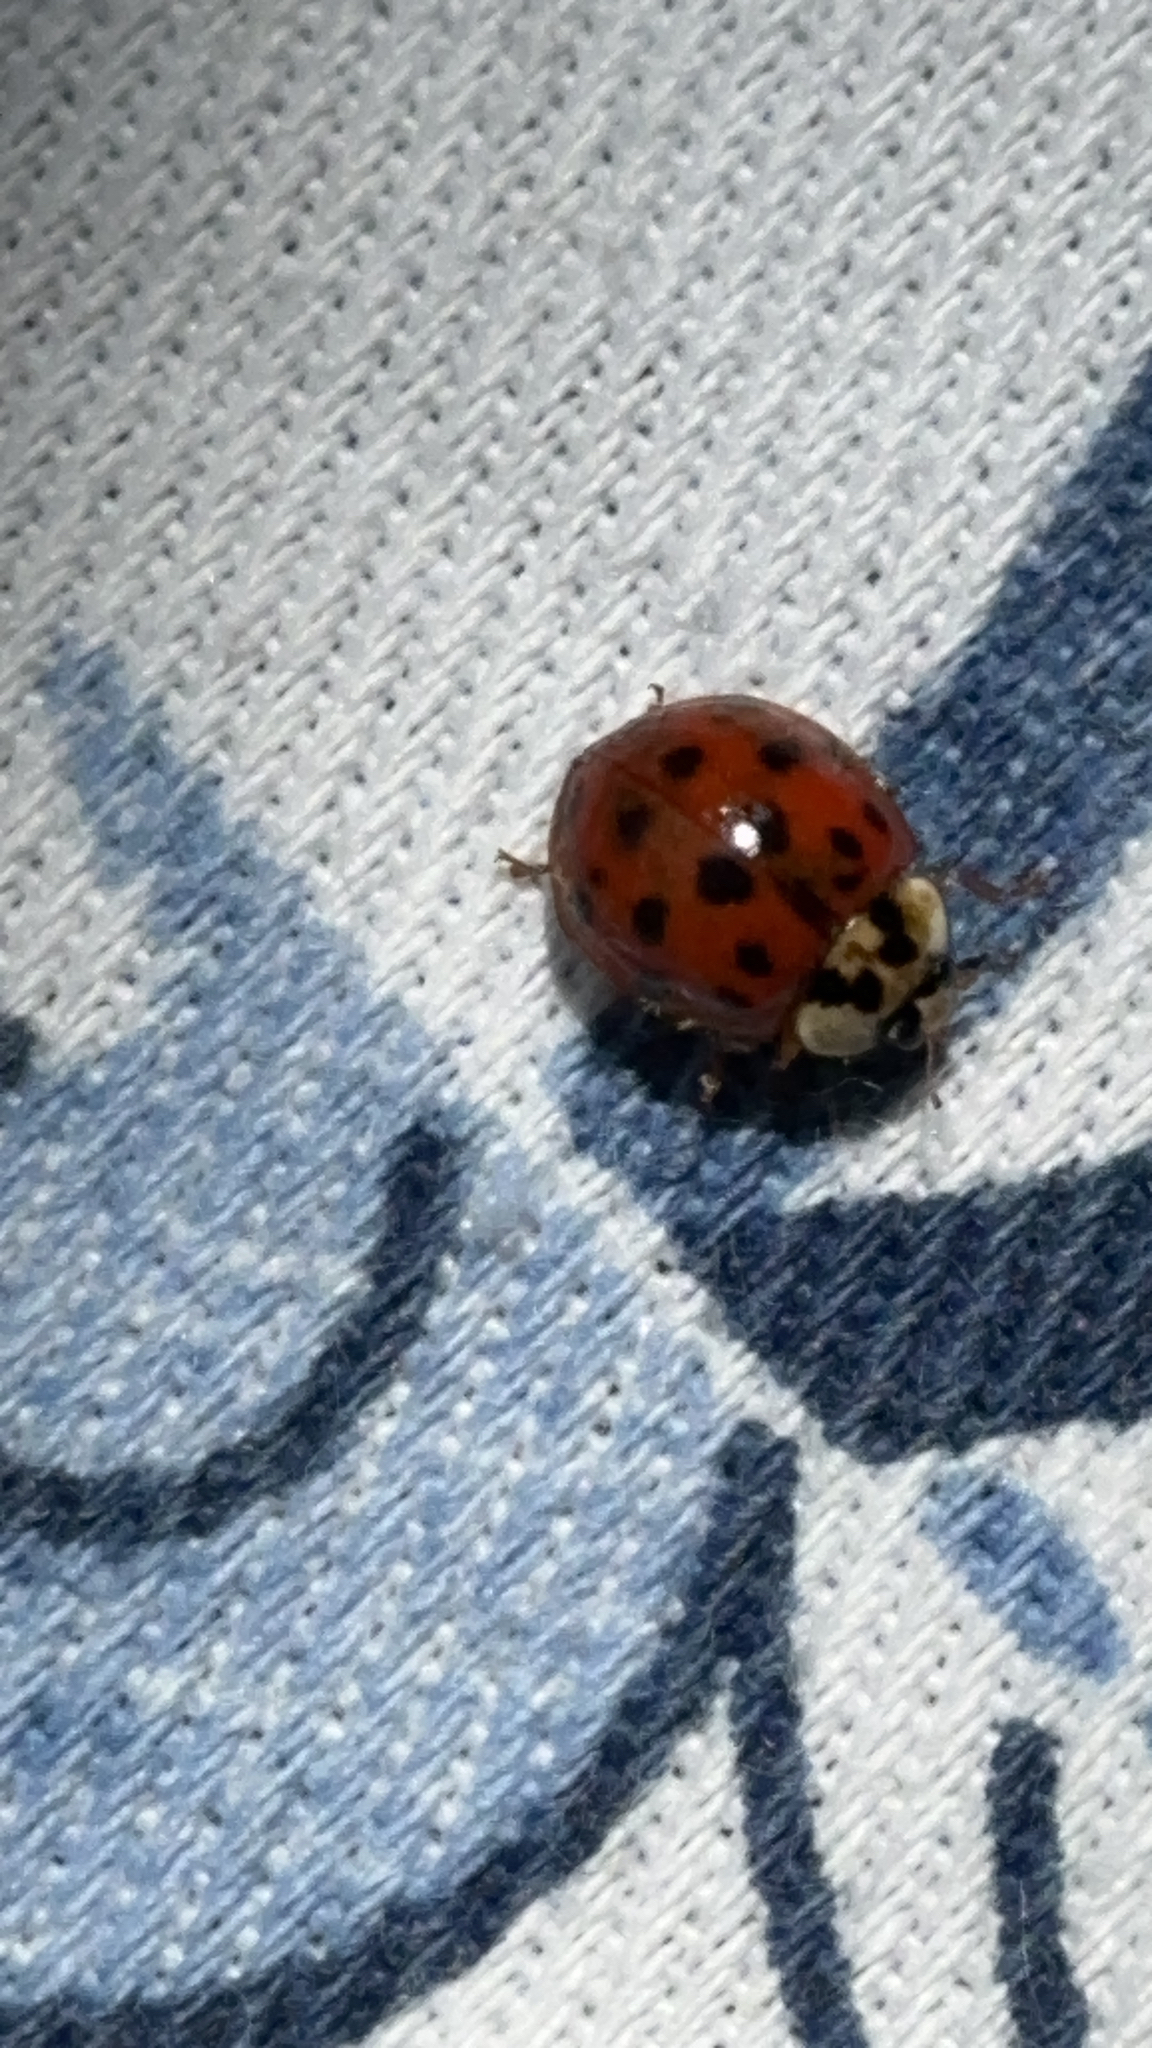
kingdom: Animalia
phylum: Arthropoda
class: Insecta
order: Coleoptera
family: Coccinellidae
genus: Harmonia
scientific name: Harmonia axyridis
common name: Harlequin ladybird
